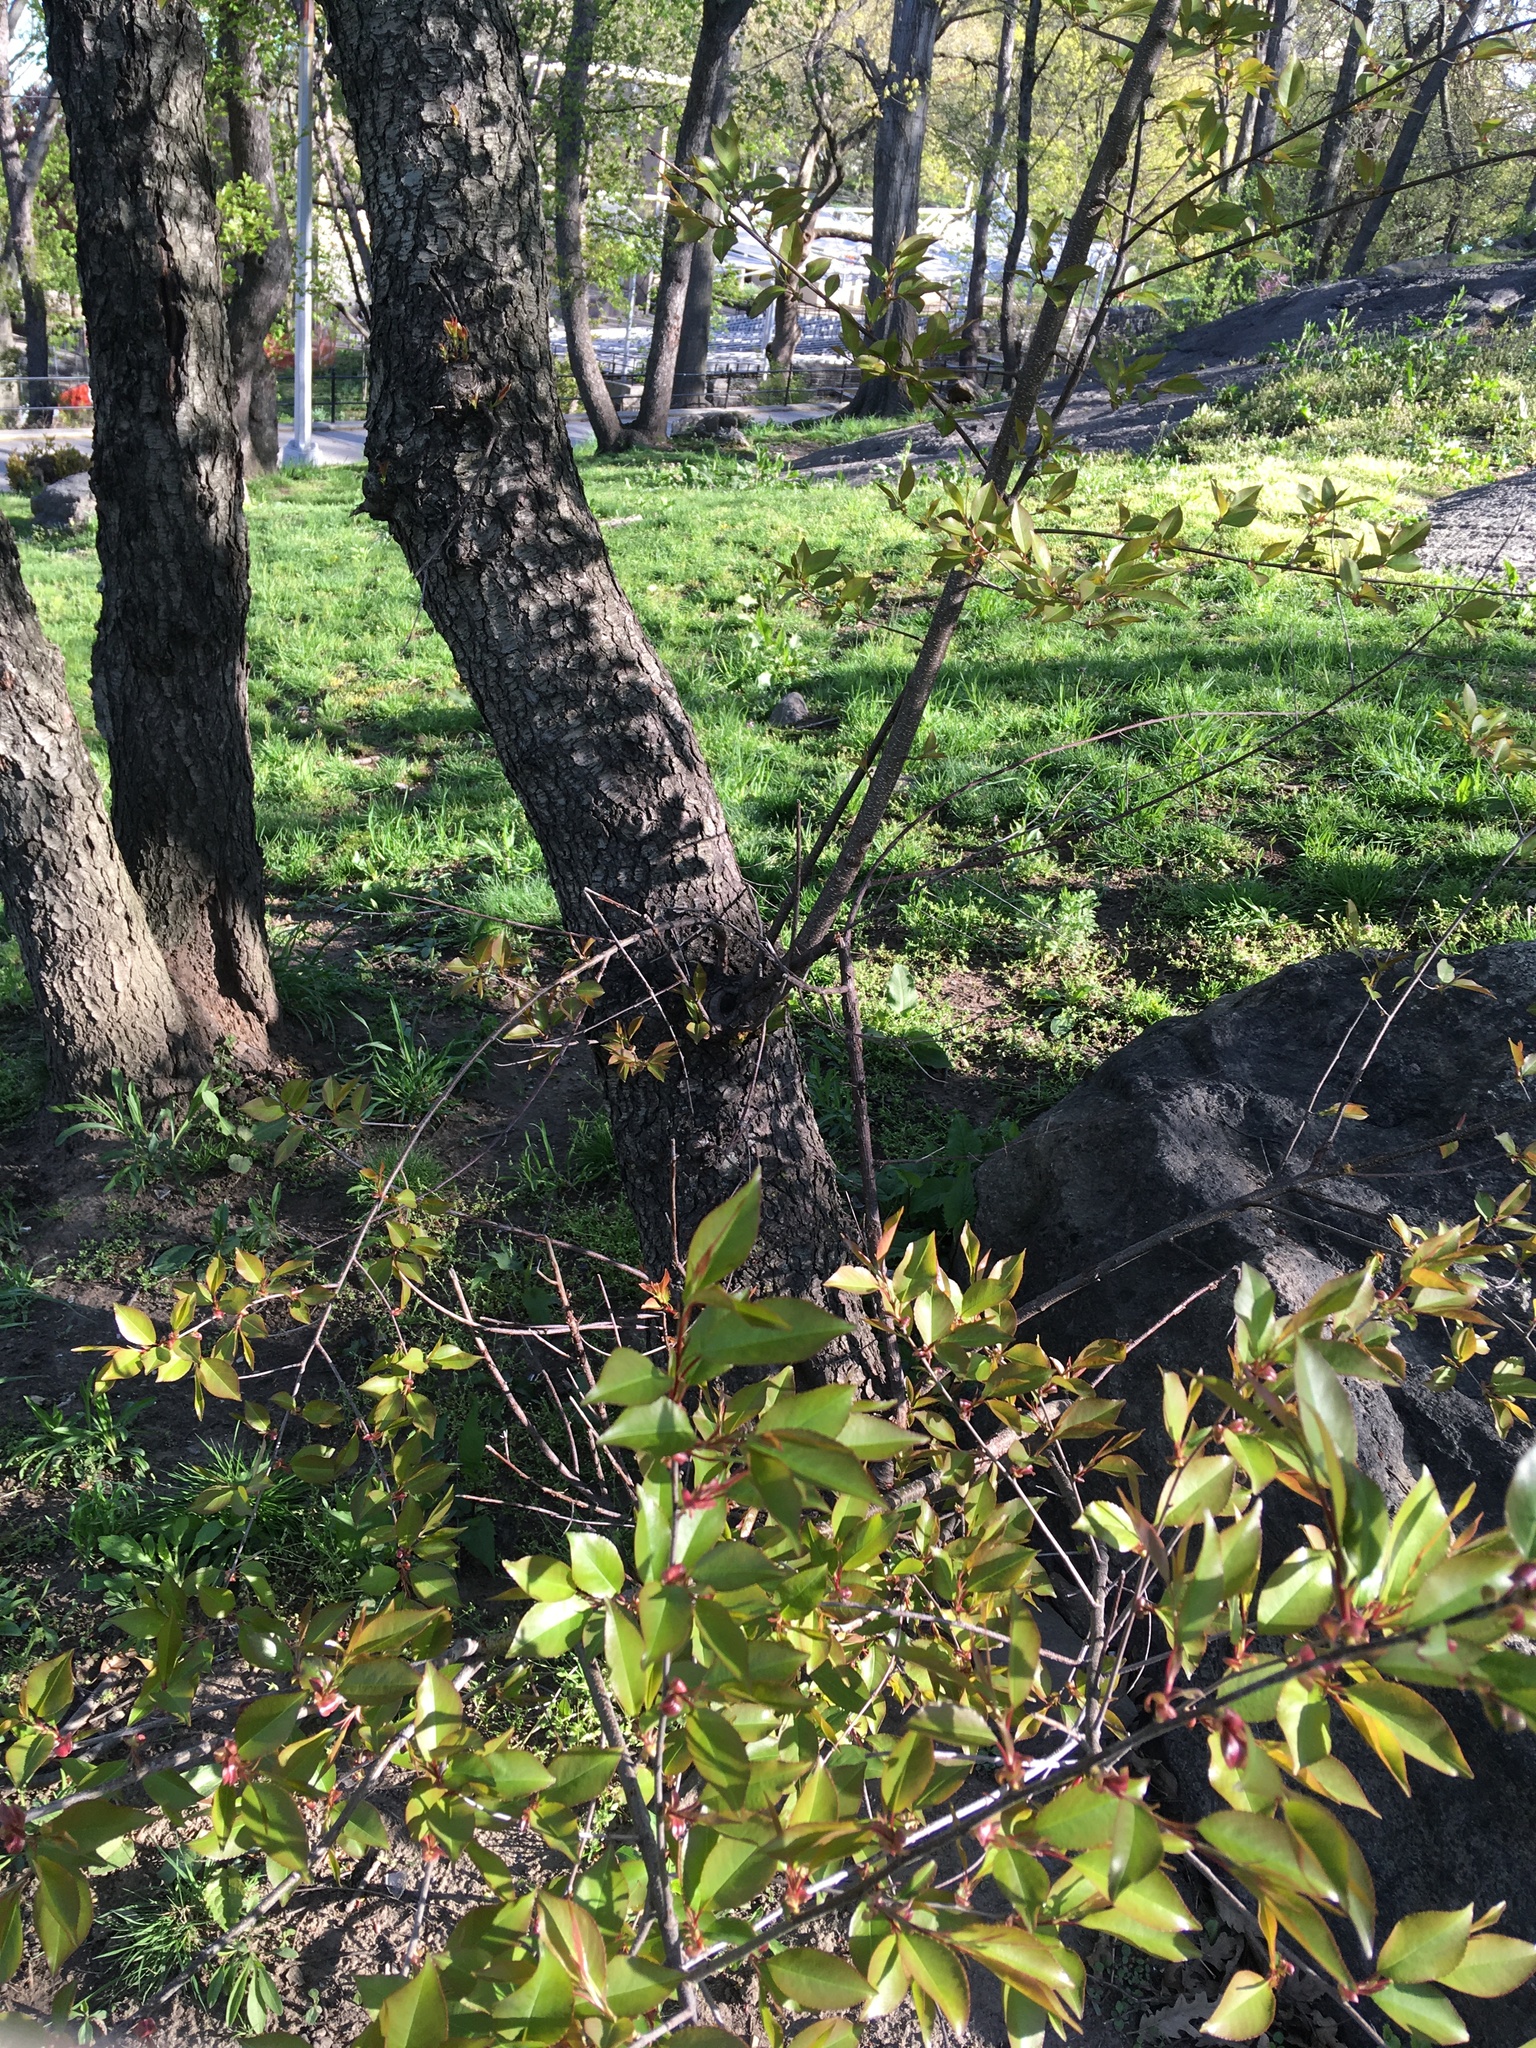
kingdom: Plantae
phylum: Tracheophyta
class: Magnoliopsida
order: Rosales
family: Rosaceae
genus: Prunus
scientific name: Prunus serotina
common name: Black cherry
